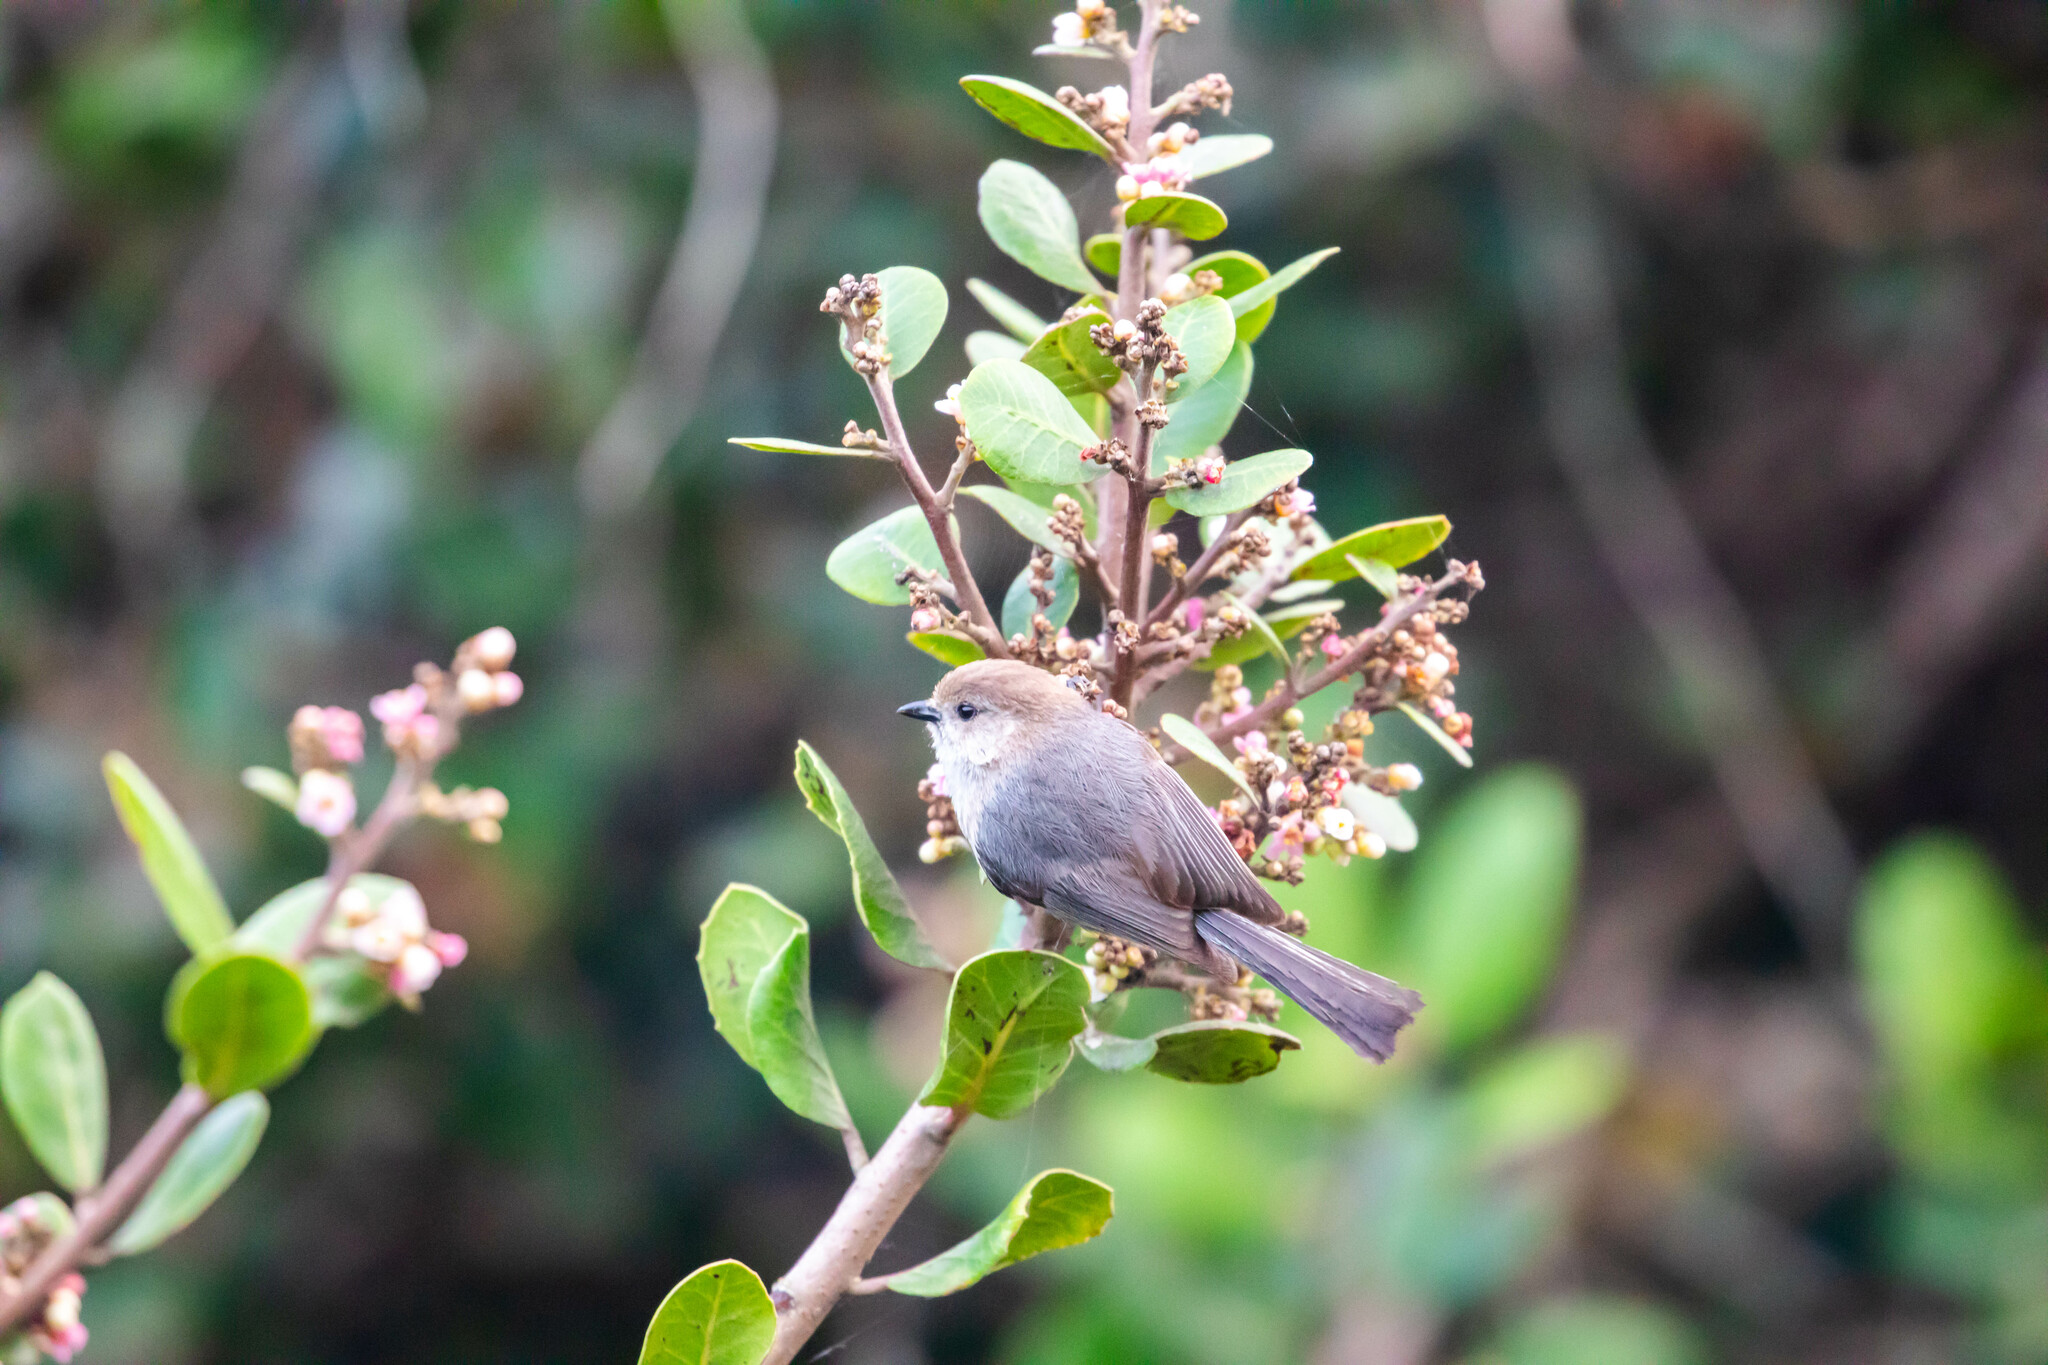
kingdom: Animalia
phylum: Chordata
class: Aves
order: Passeriformes
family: Aegithalidae
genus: Psaltriparus
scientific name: Psaltriparus minimus
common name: American bushtit
